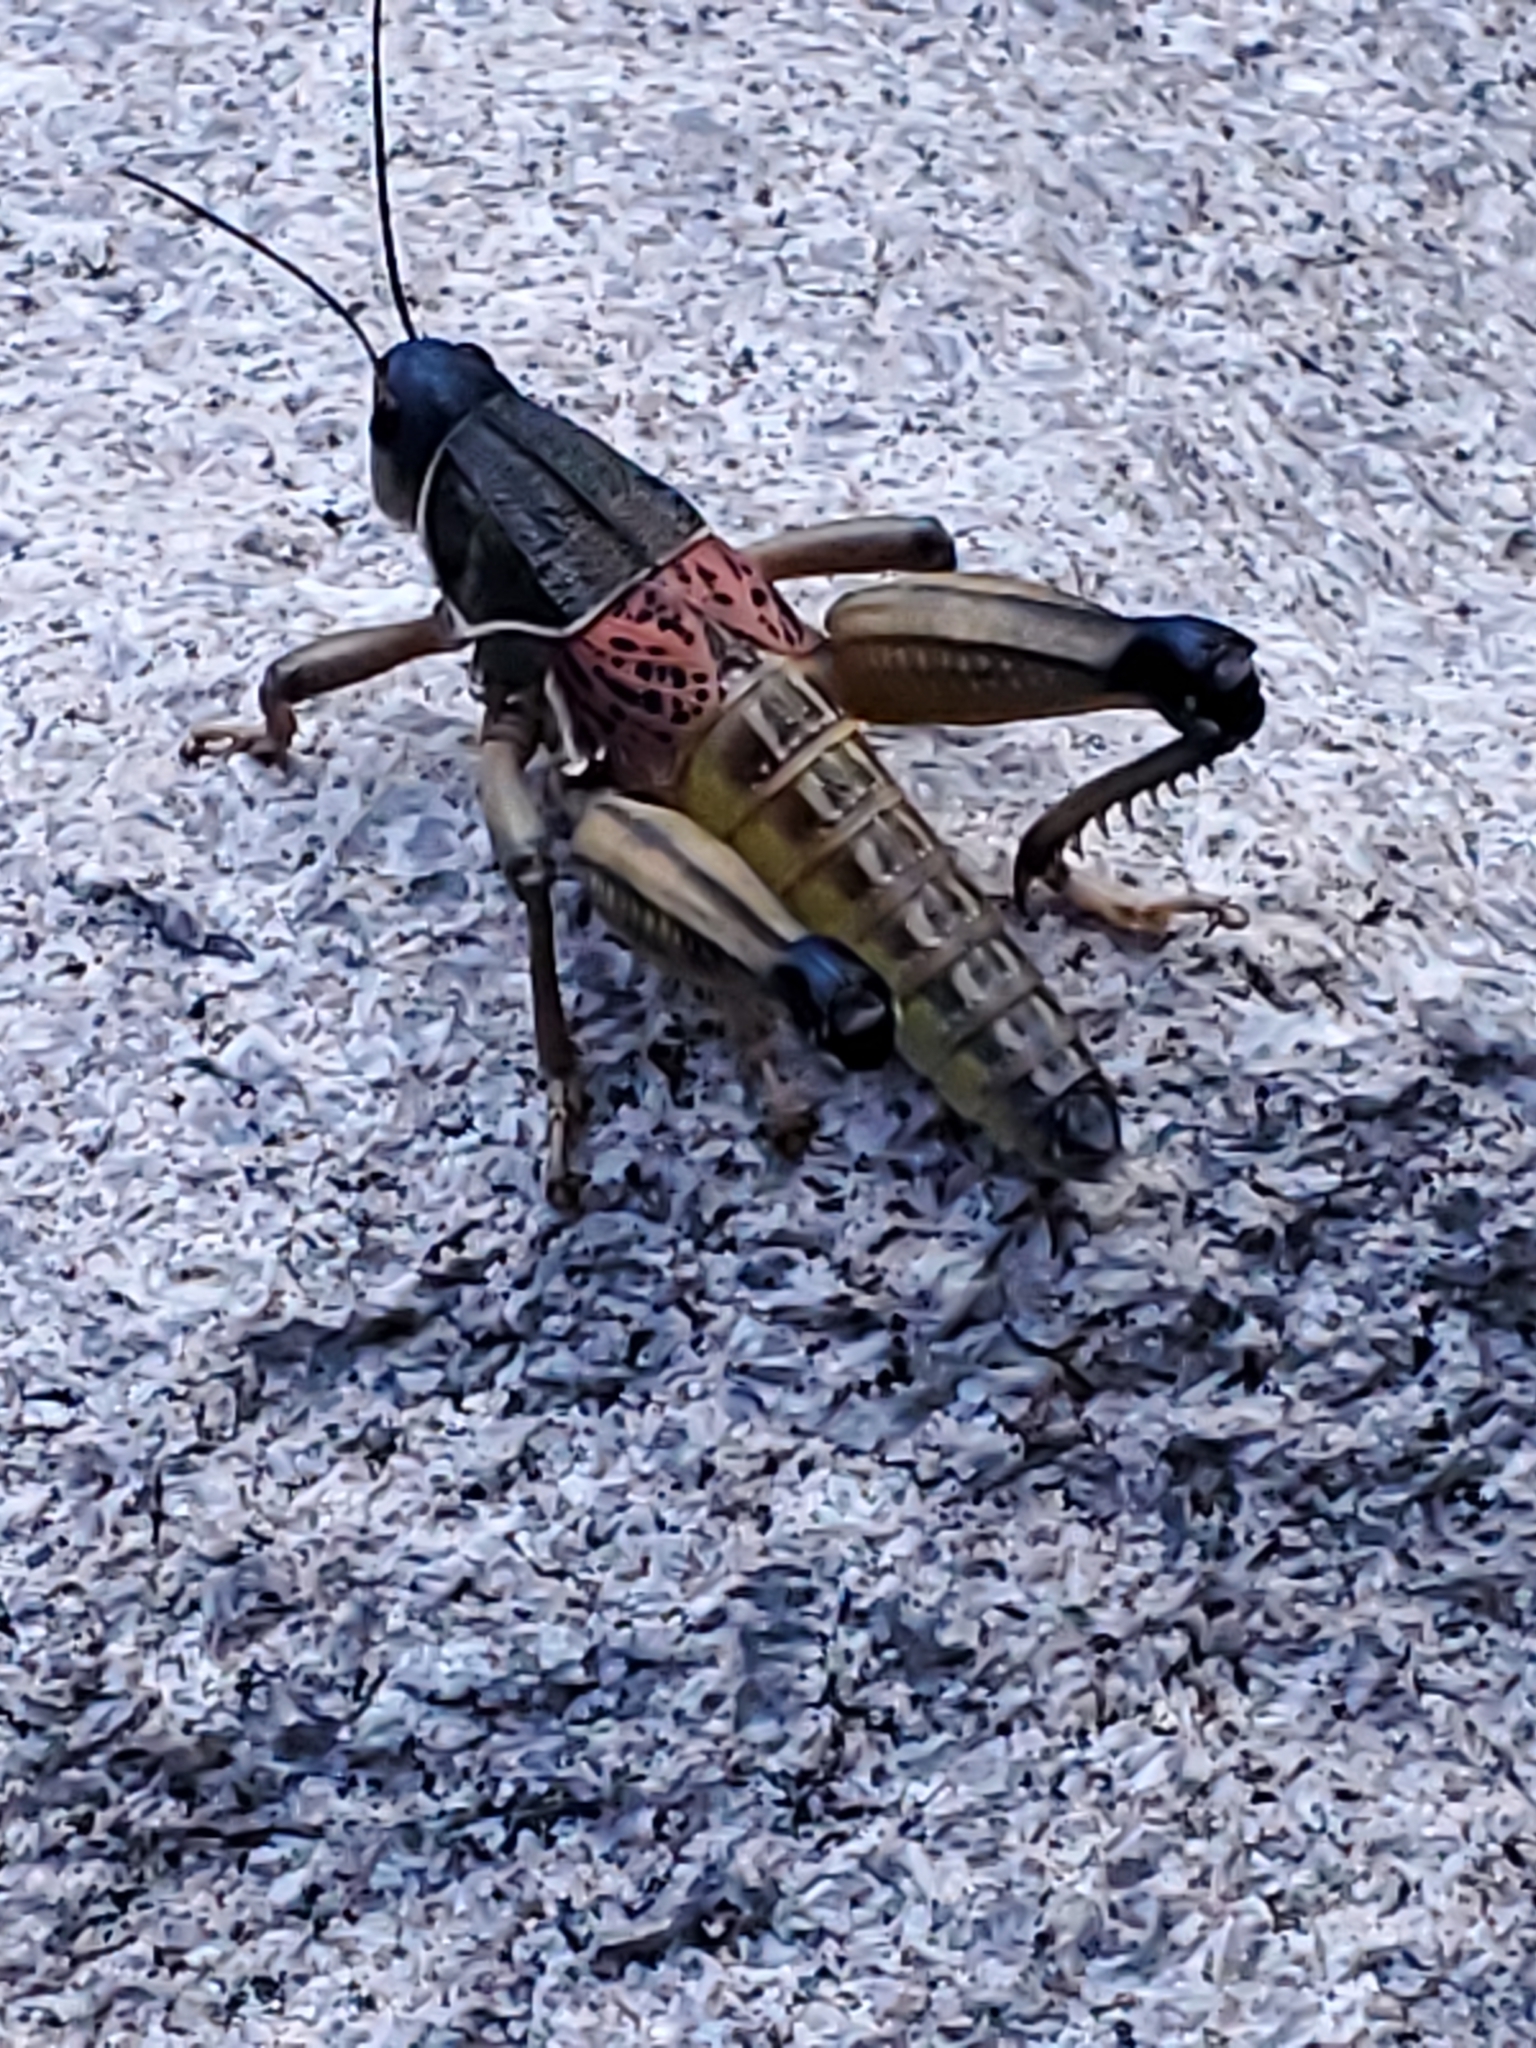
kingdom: Animalia
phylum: Arthropoda
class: Insecta
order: Orthoptera
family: Romaleidae
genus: Brachystola
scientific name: Brachystola magna
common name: Plains lubber grasshopper
